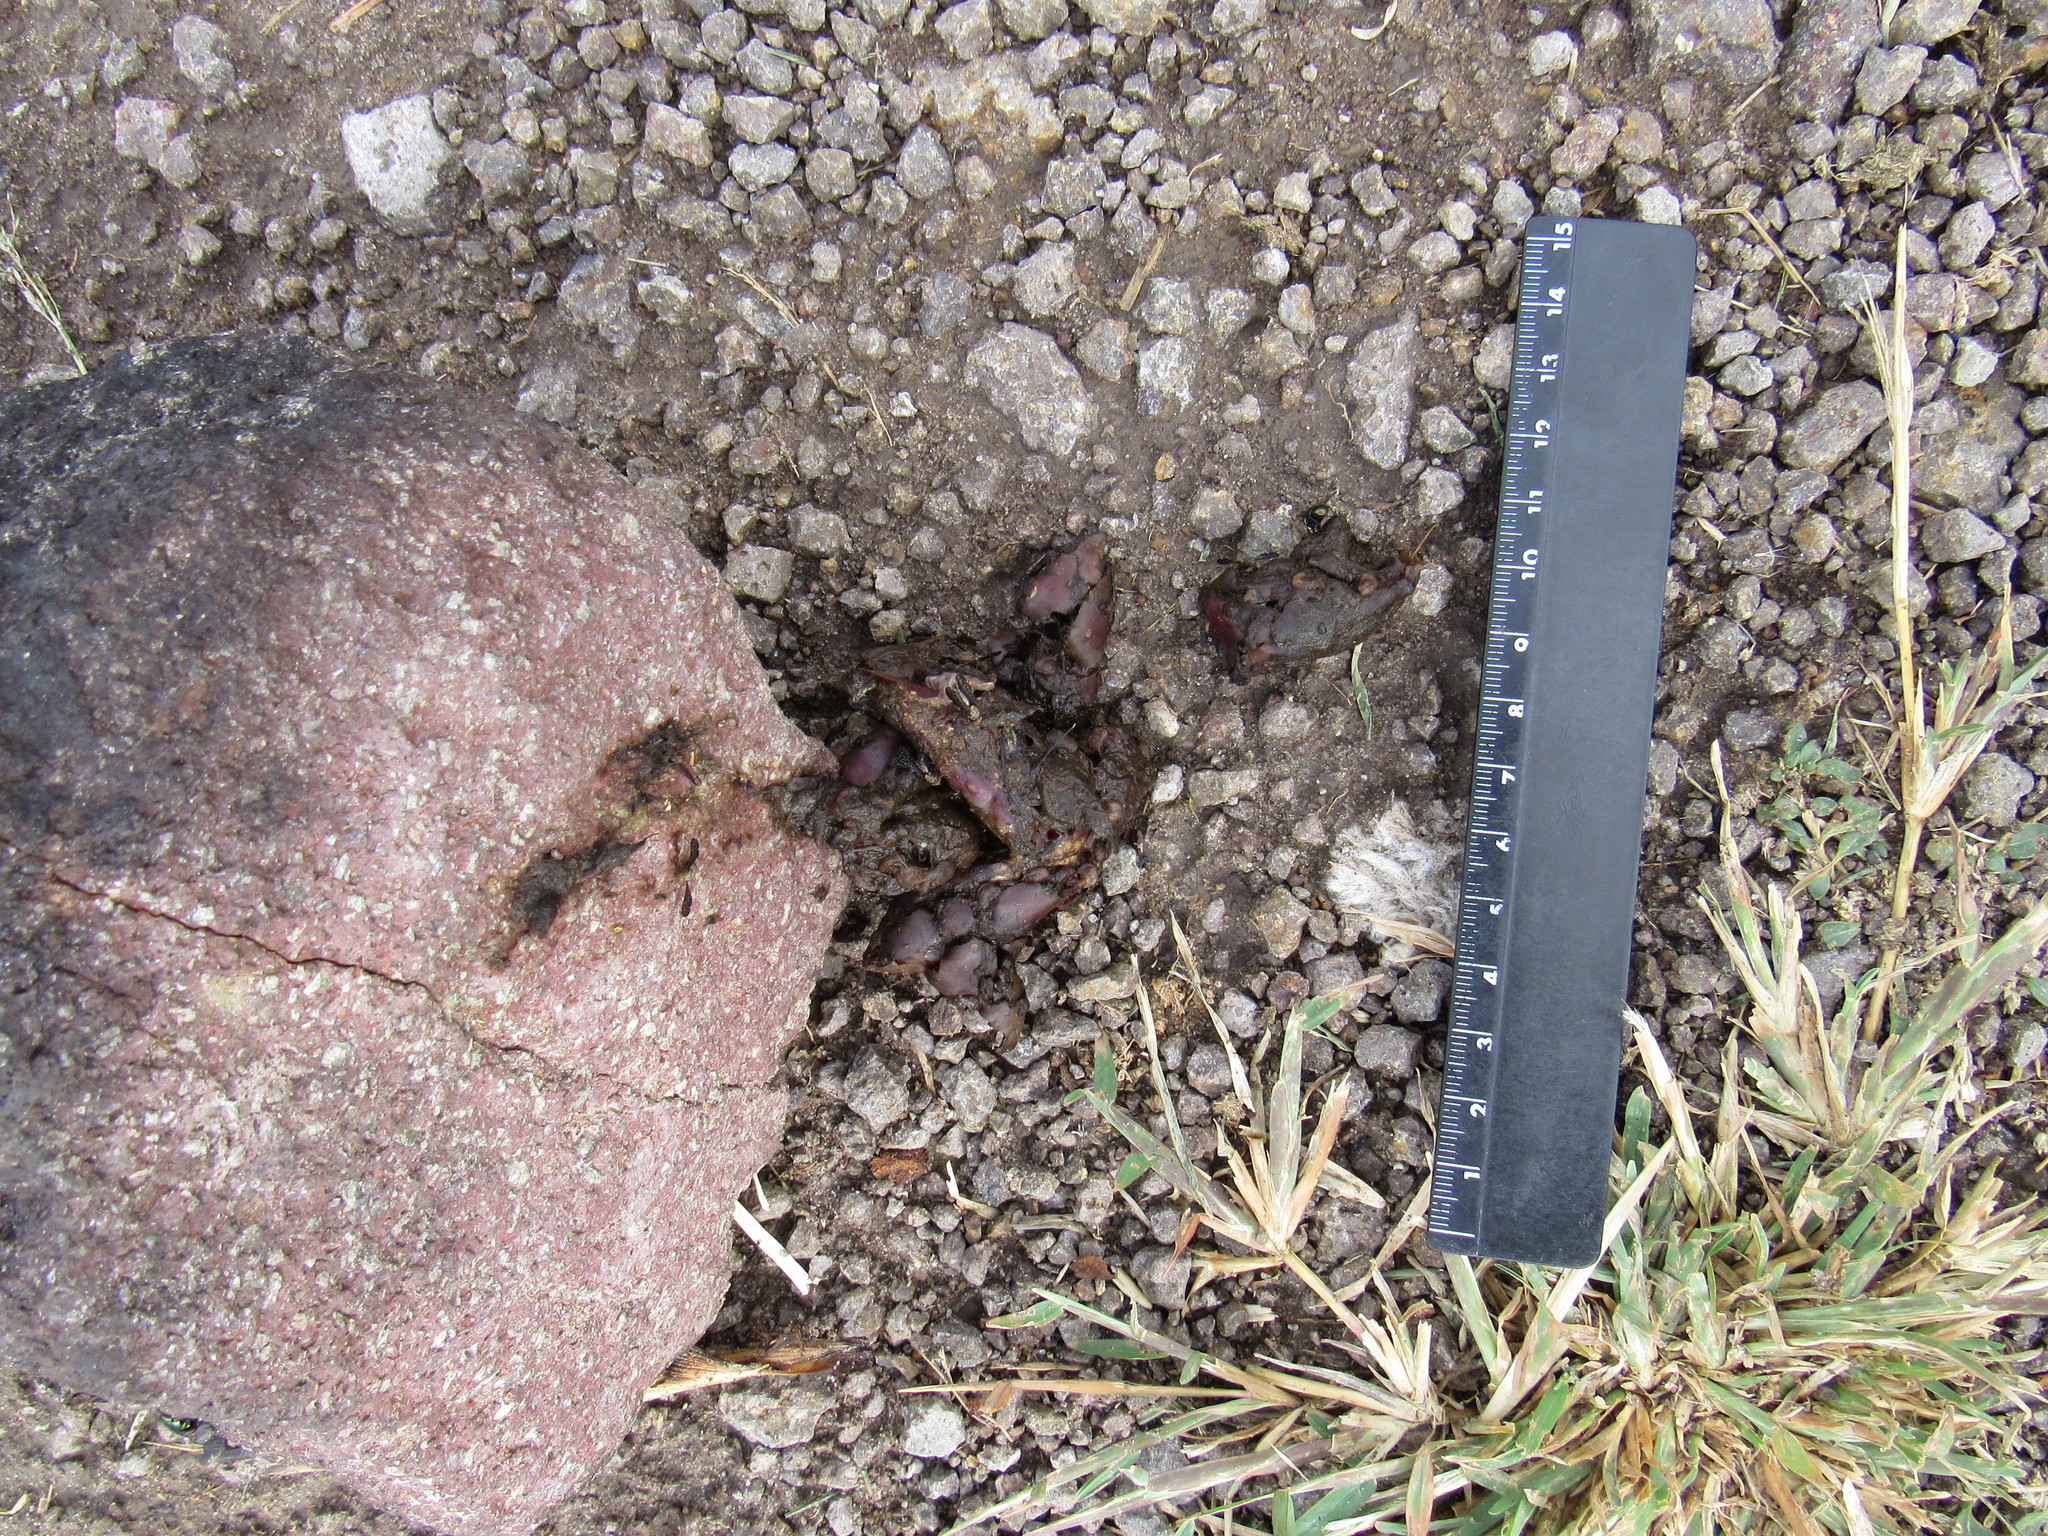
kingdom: Animalia
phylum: Chordata
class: Mammalia
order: Carnivora
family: Canidae
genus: Urocyon
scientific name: Urocyon cinereoargenteus
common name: Gray fox
